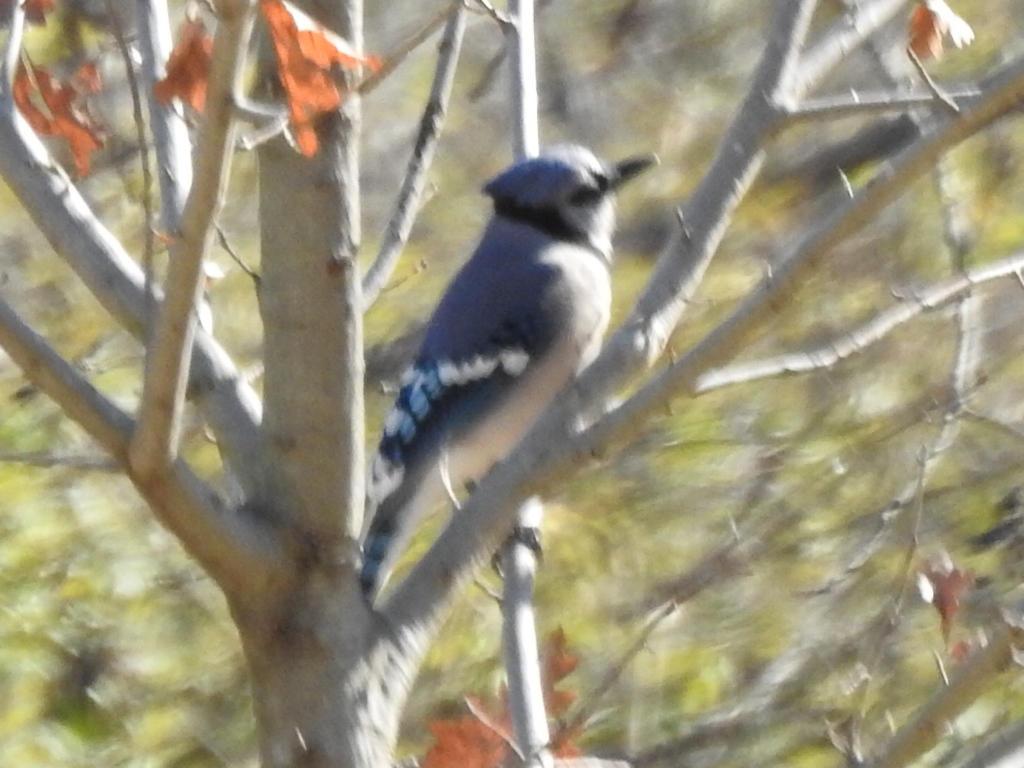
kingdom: Animalia
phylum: Chordata
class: Aves
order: Passeriformes
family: Corvidae
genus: Cyanocitta
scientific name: Cyanocitta cristata
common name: Blue jay
